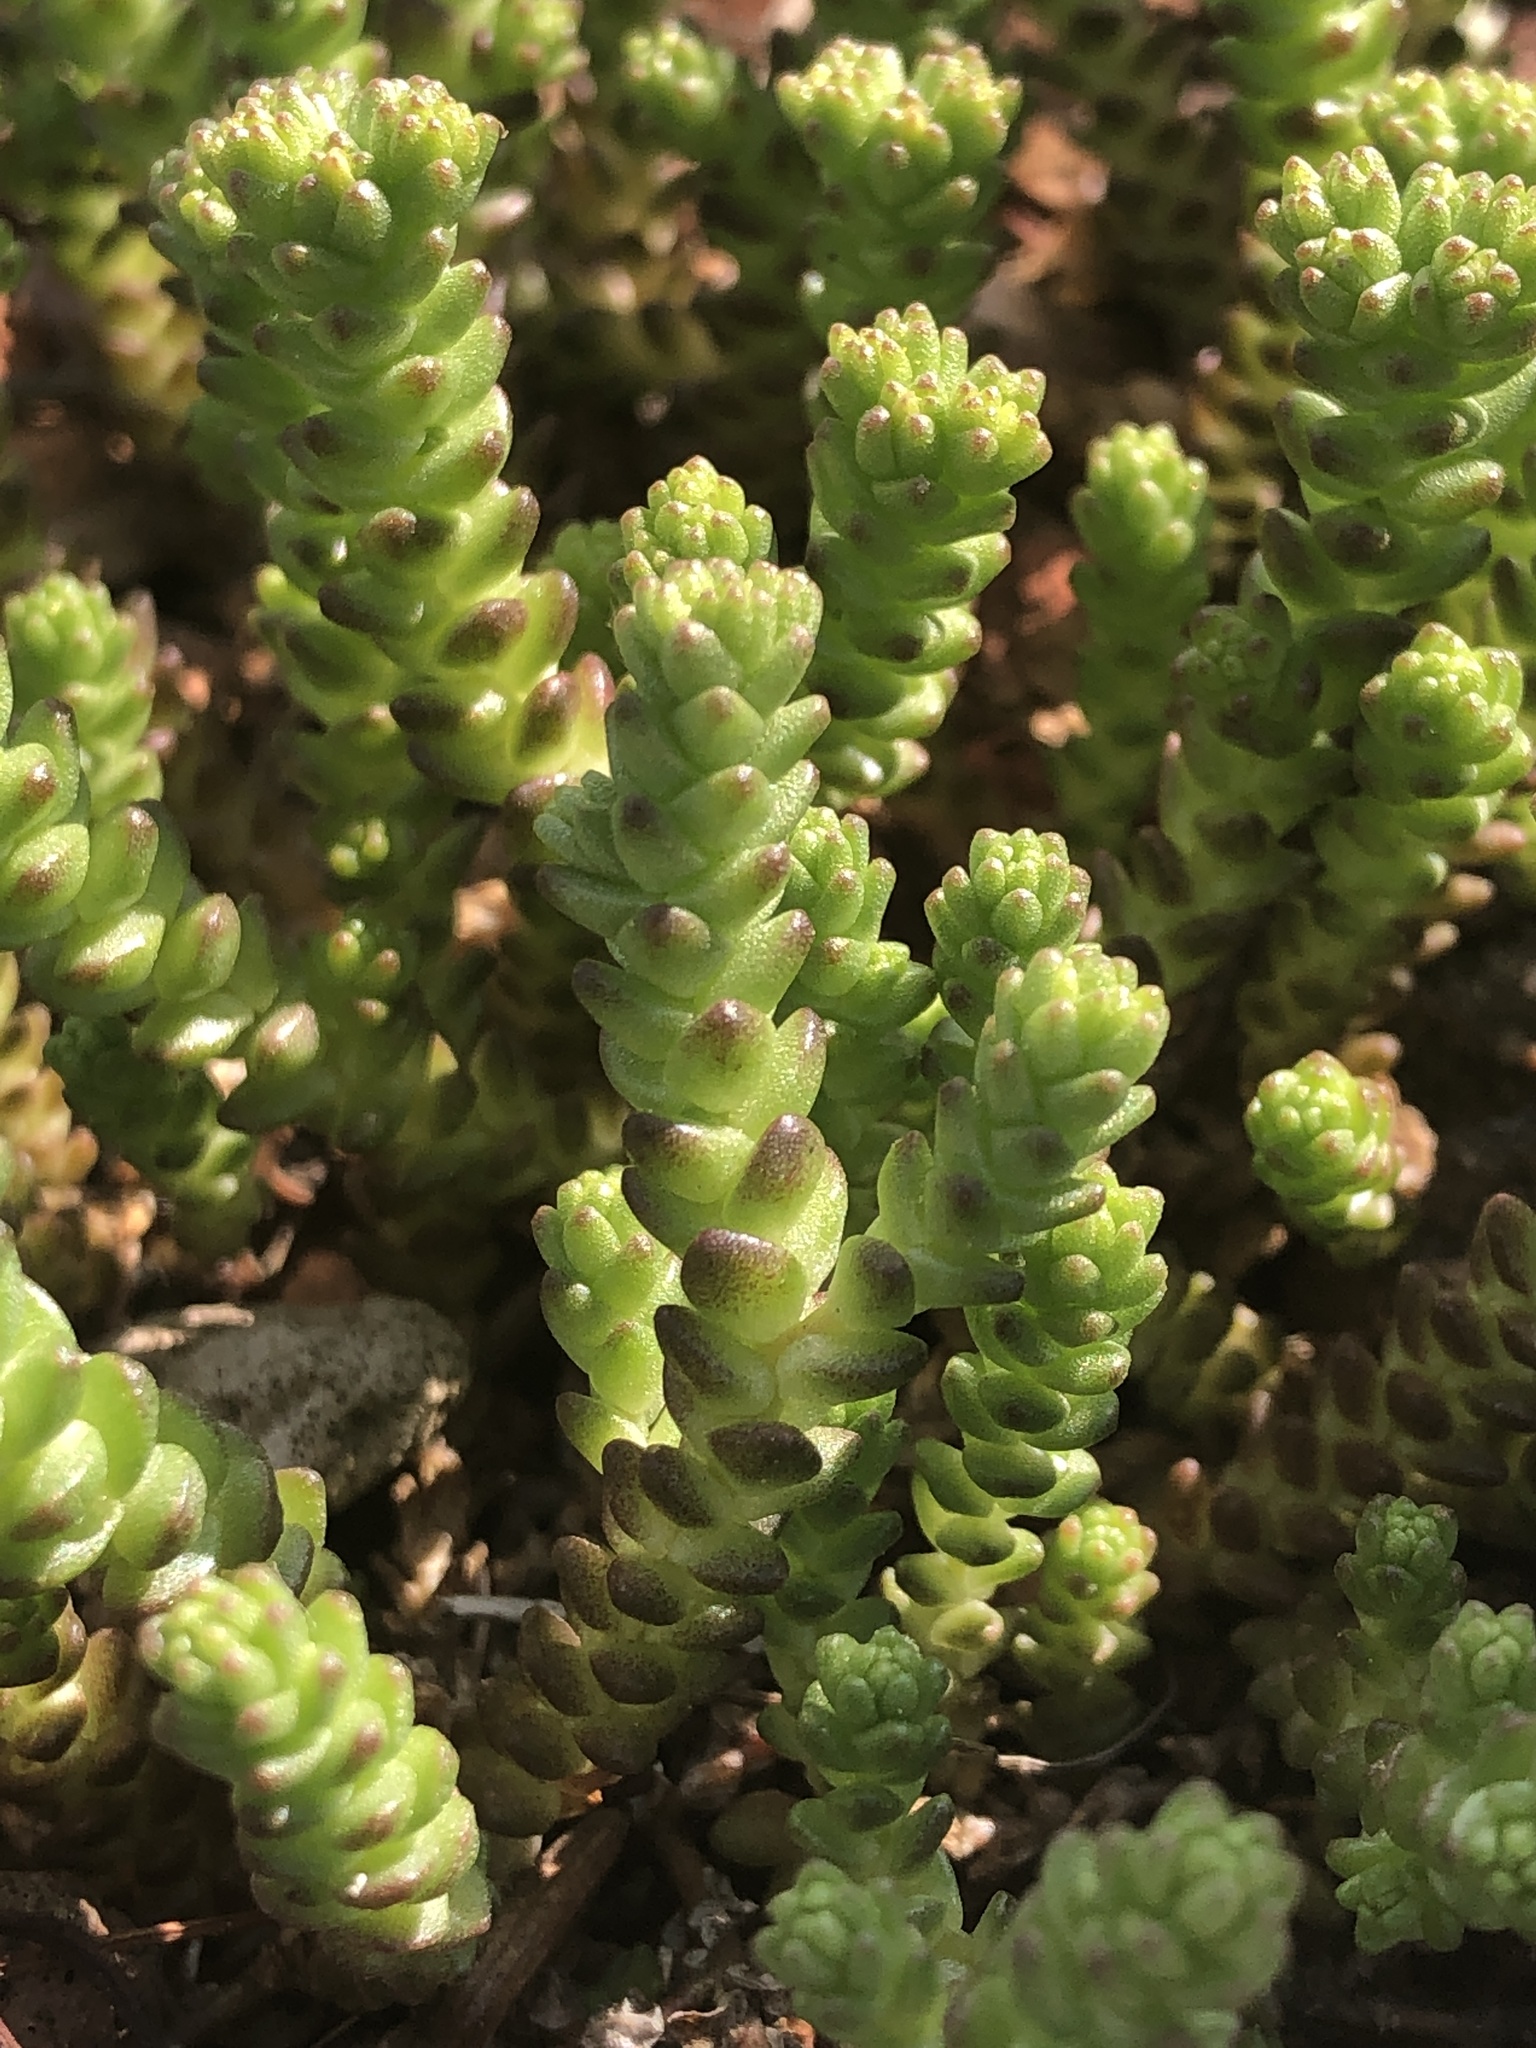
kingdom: Plantae
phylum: Tracheophyta
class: Magnoliopsida
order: Saxifragales
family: Crassulaceae
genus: Sedum
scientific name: Sedum acre
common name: Biting stonecrop
